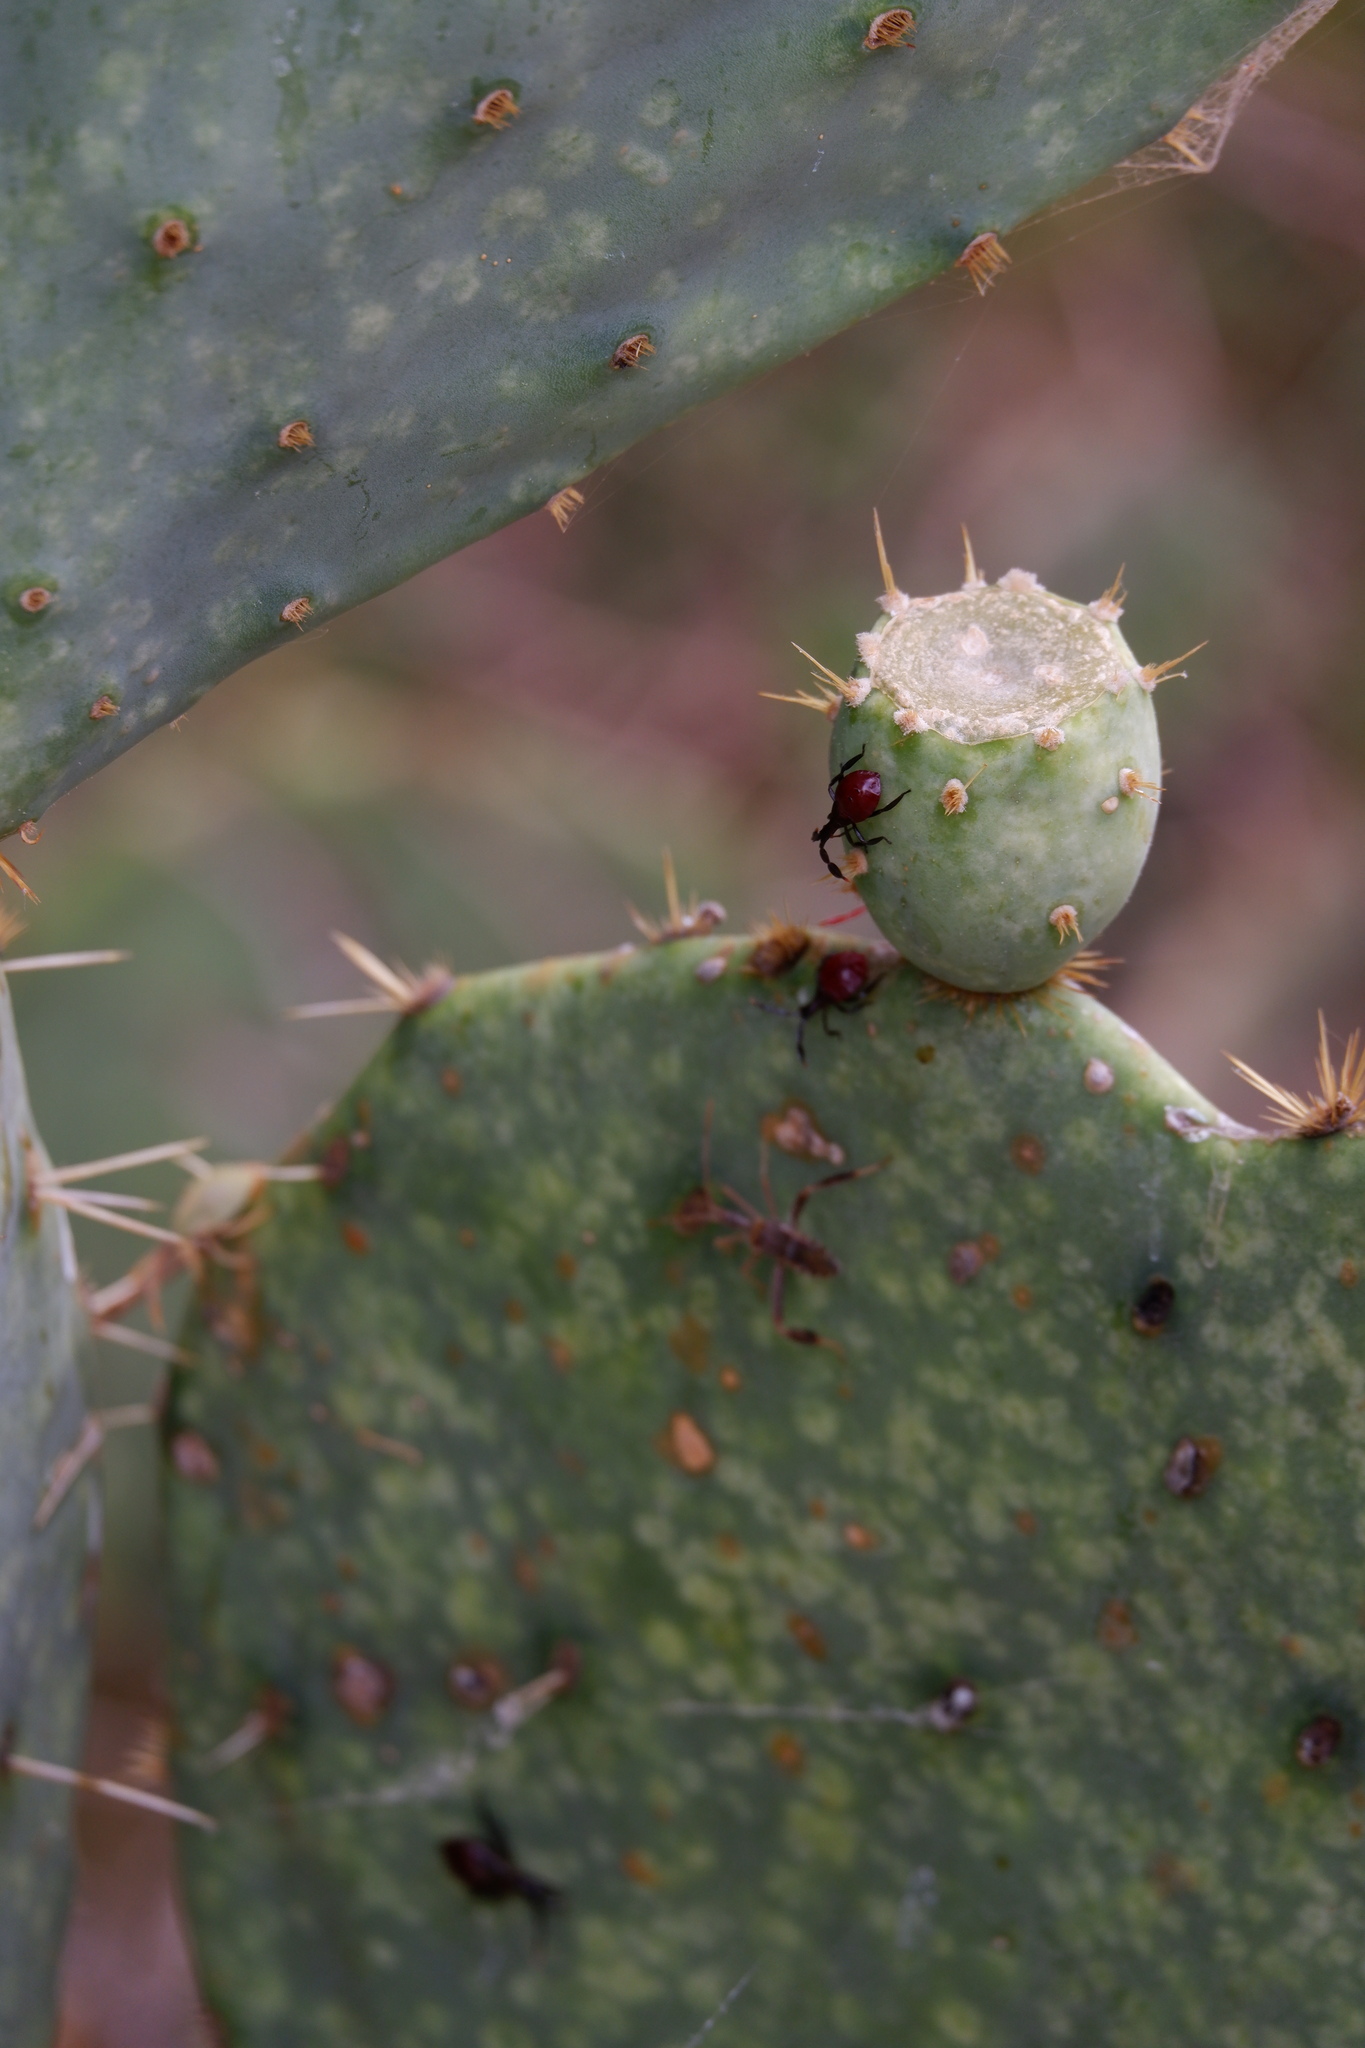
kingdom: Animalia
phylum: Arthropoda
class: Insecta
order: Hemiptera
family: Coreidae
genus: Chelinidea
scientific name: Chelinidea vittiger
